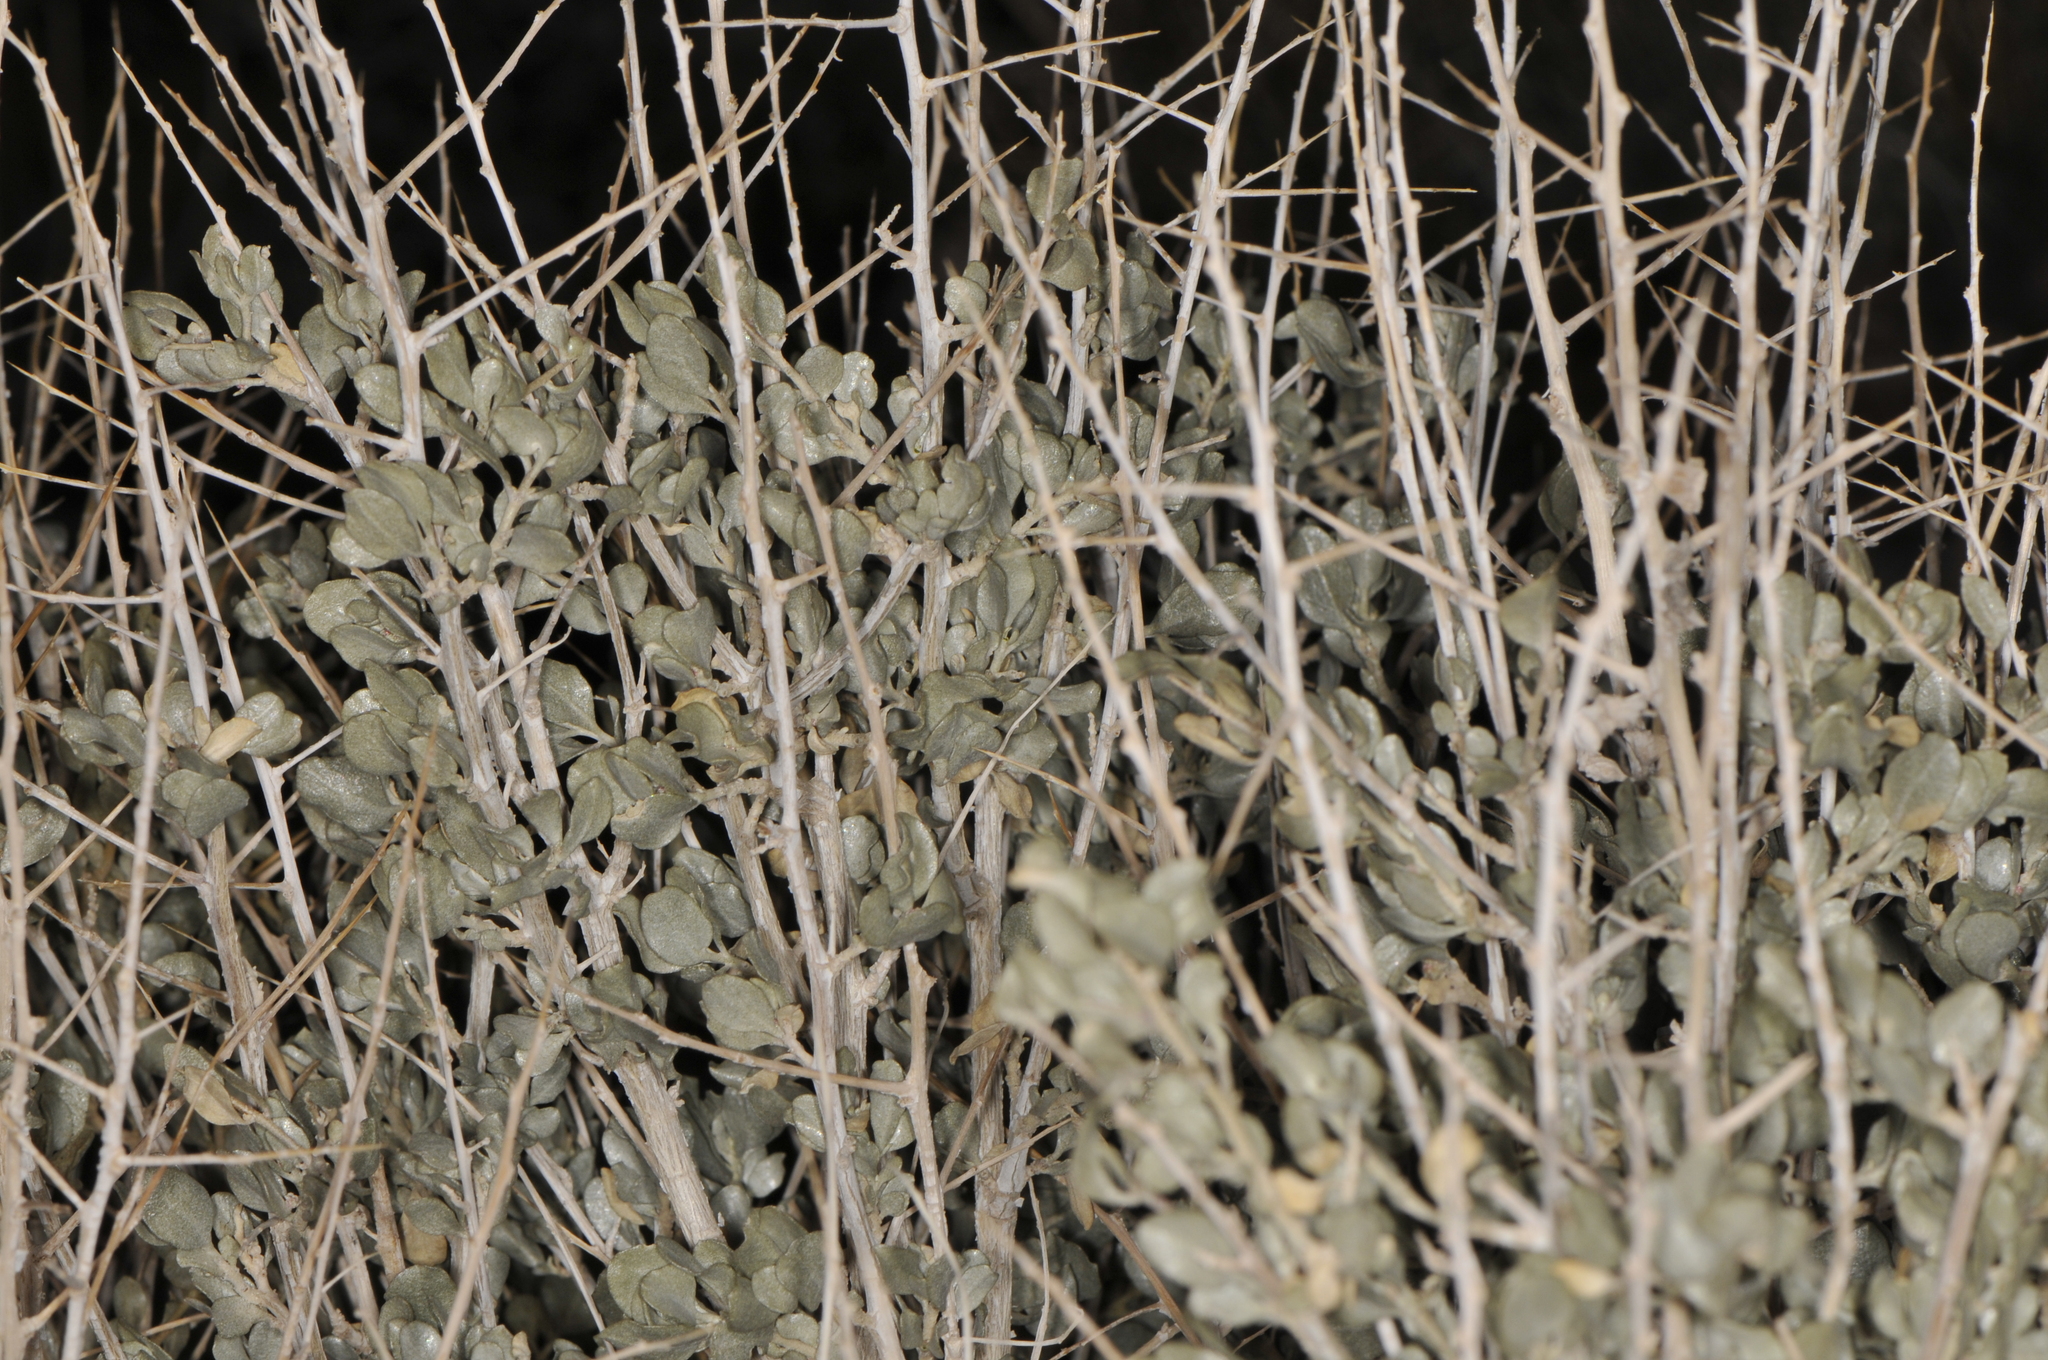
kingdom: Plantae
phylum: Tracheophyta
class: Magnoliopsida
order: Caryophyllales
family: Amaranthaceae
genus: Atriplex
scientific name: Atriplex confertifolia
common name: Shadscale
